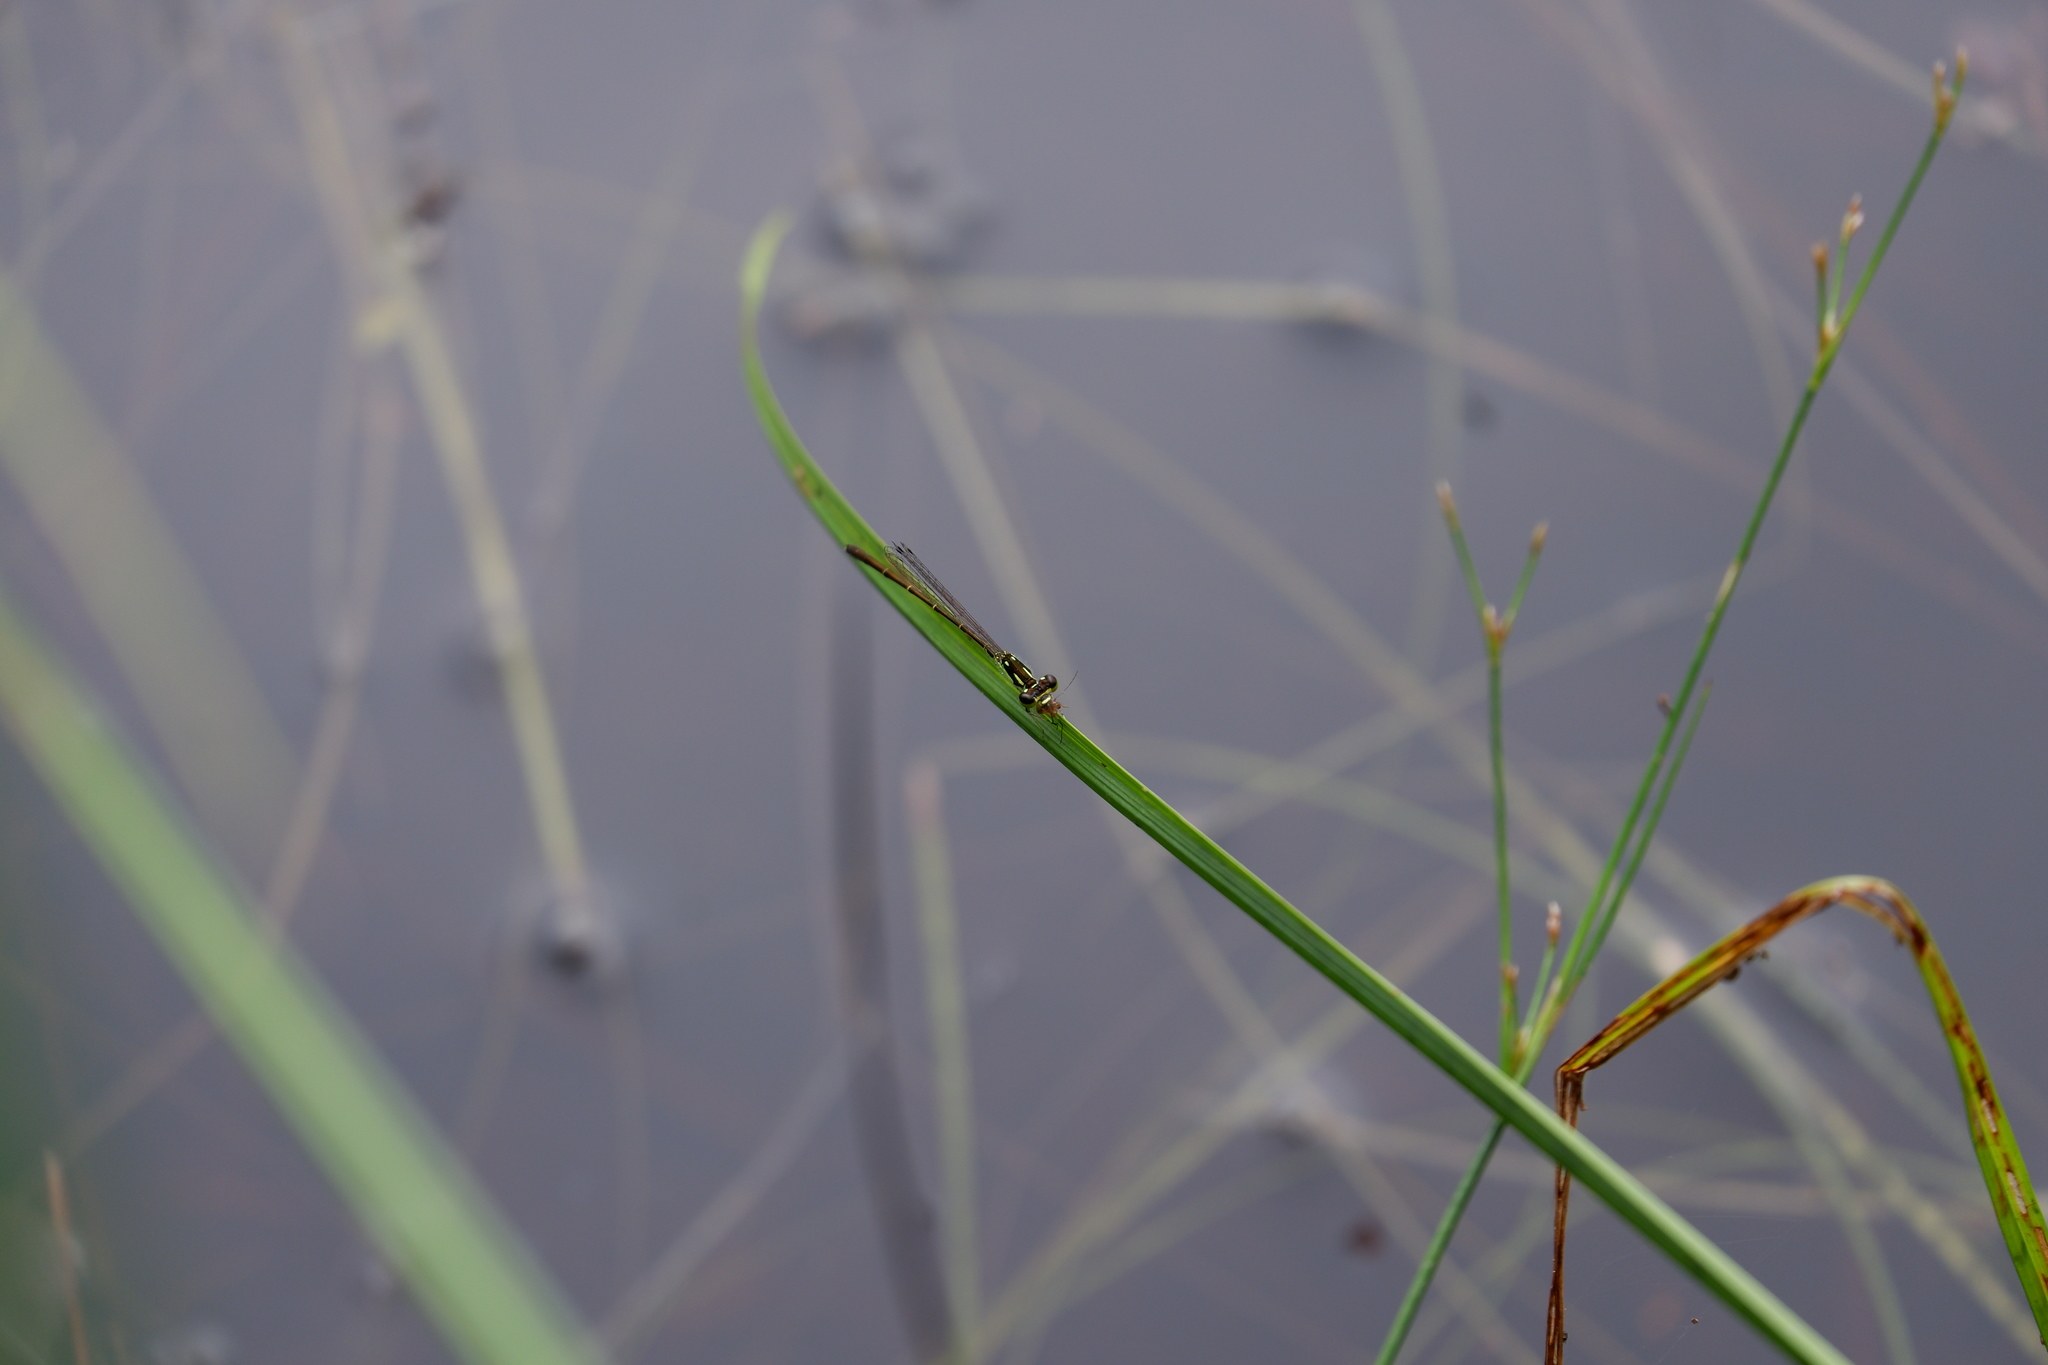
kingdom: Animalia
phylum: Arthropoda
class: Insecta
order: Odonata
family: Coenagrionidae
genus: Ischnura
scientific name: Ischnura posita
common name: Fragile forktail
